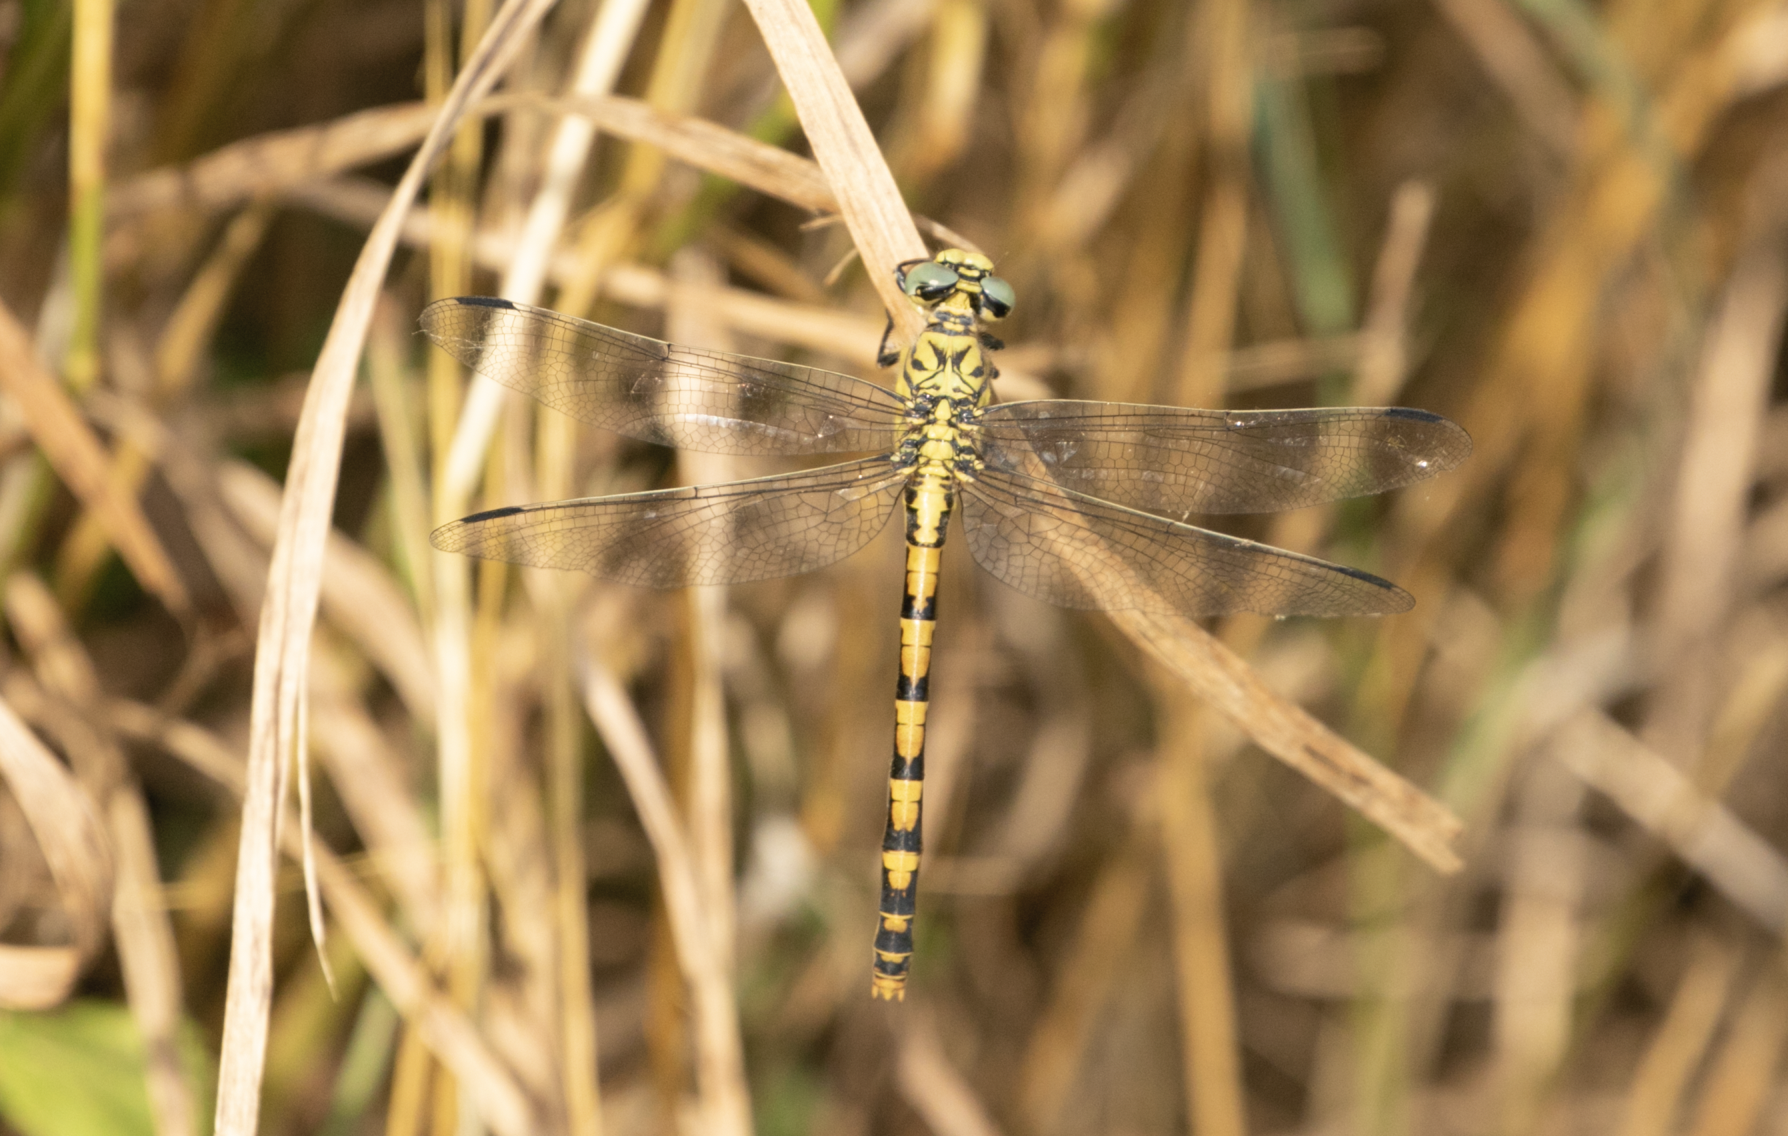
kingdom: Animalia
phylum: Arthropoda
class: Insecta
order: Odonata
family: Gomphidae
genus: Onychogomphus
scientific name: Onychogomphus forcipatus
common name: Small pincertail
